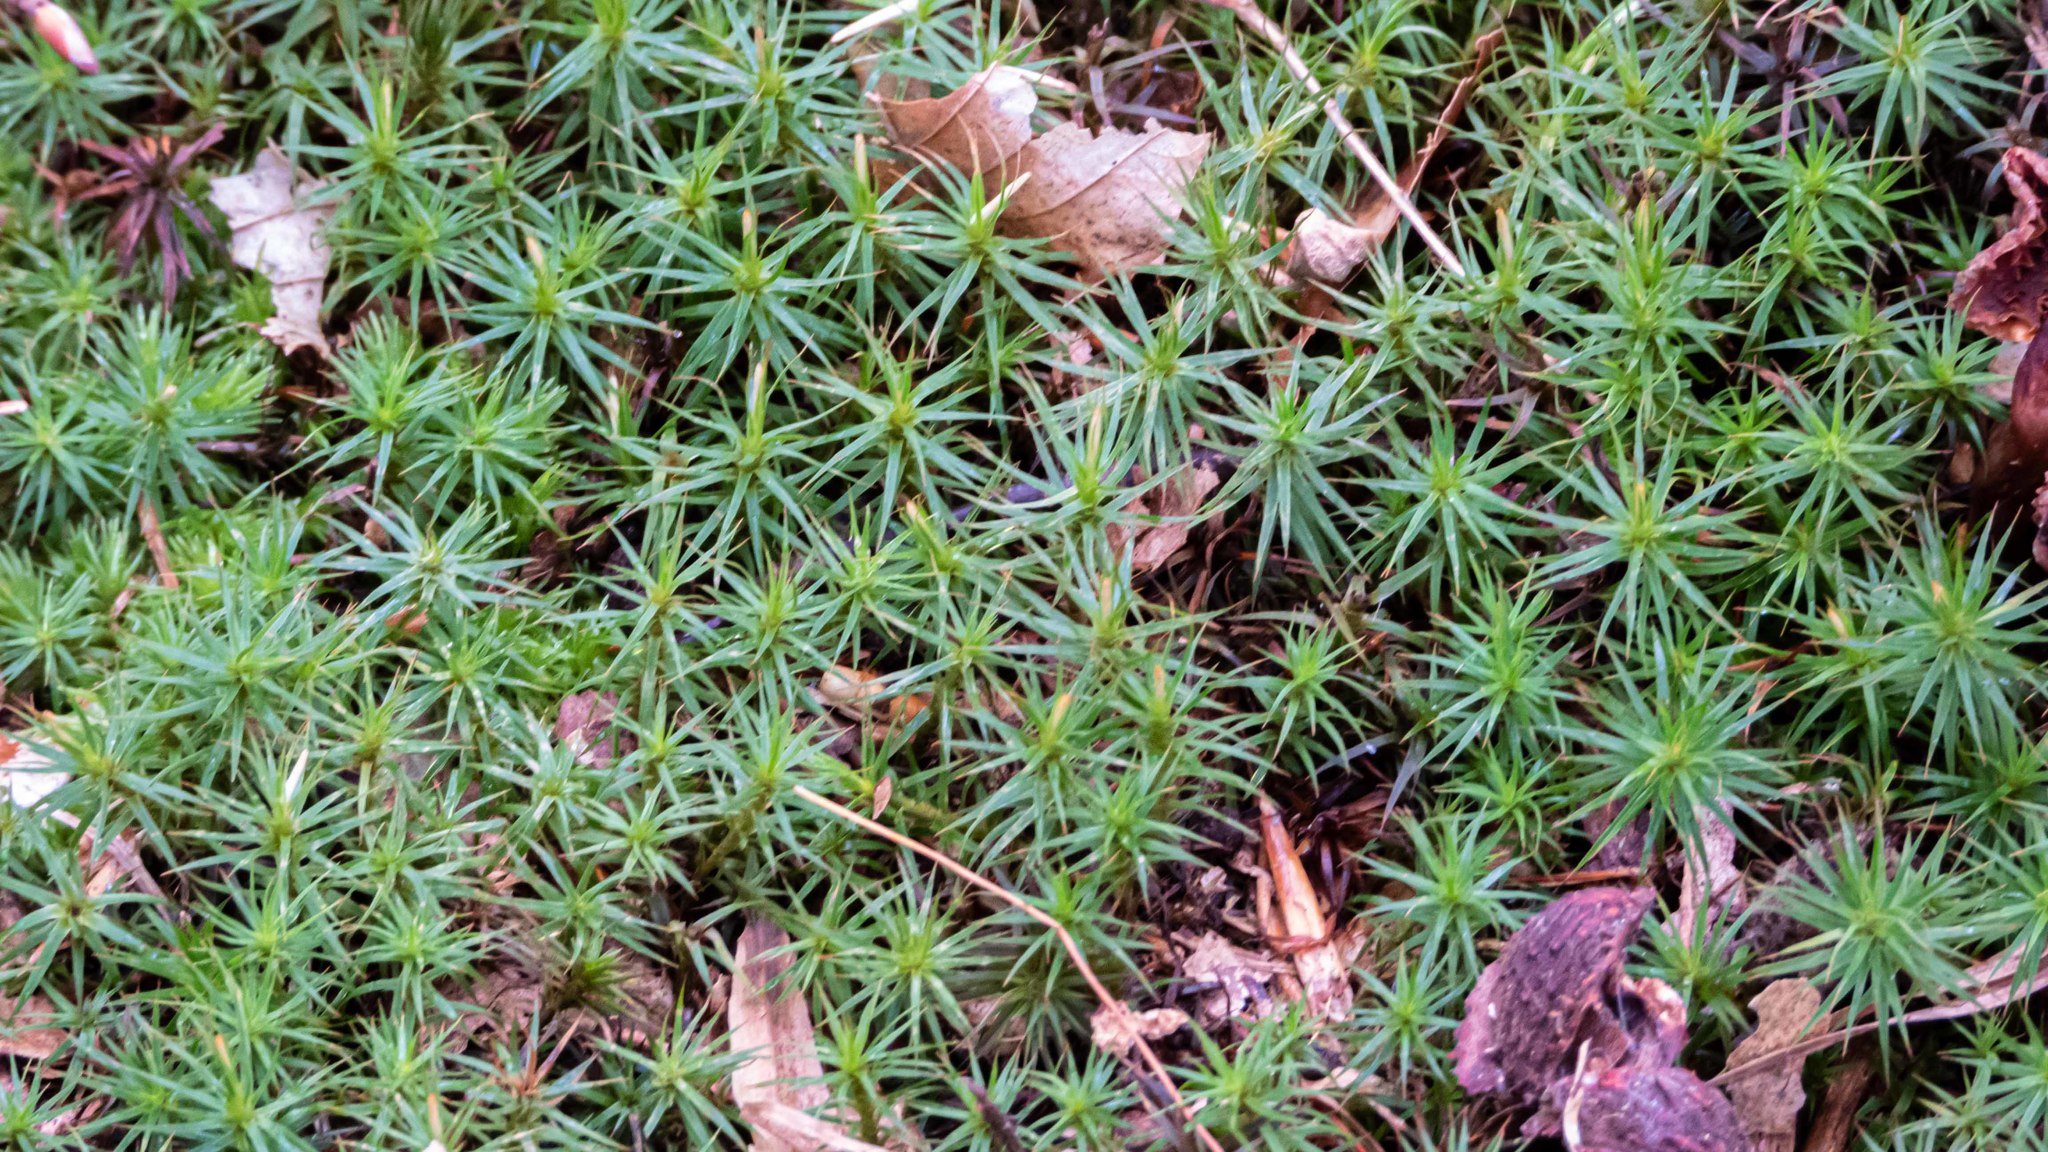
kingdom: Plantae
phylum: Bryophyta
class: Polytrichopsida
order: Polytrichales
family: Polytrichaceae
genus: Polytrichum
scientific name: Polytrichum commune
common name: Common haircap
